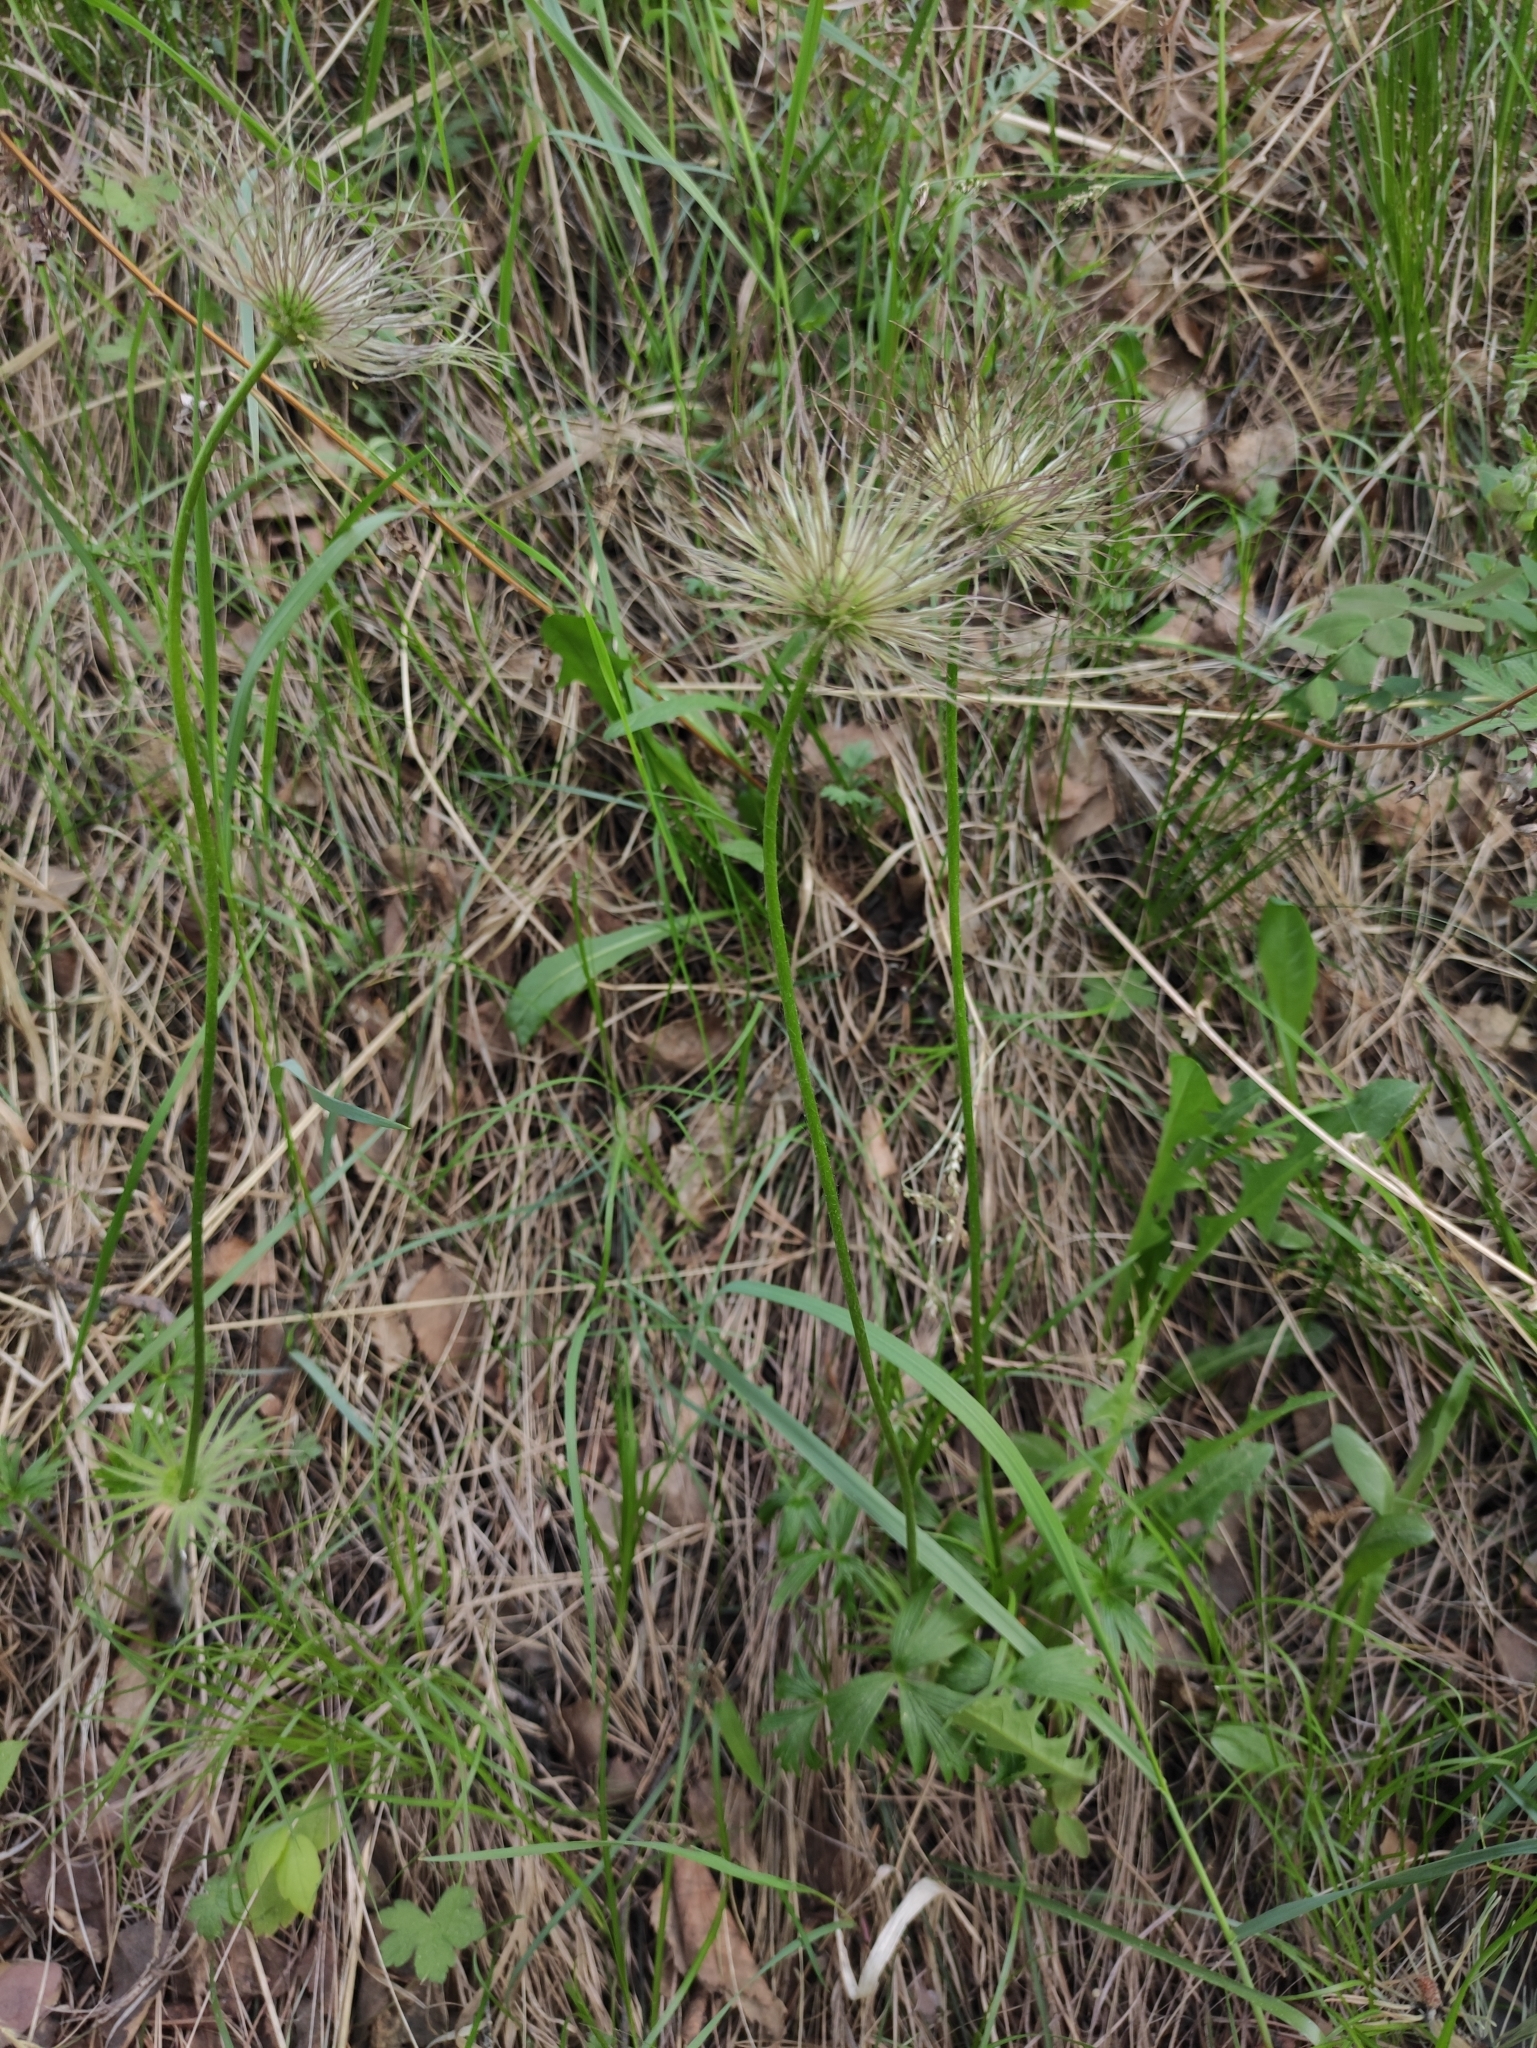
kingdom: Plantae
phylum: Tracheophyta
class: Magnoliopsida
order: Ranunculales
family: Ranunculaceae
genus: Pulsatilla
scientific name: Pulsatilla patens
